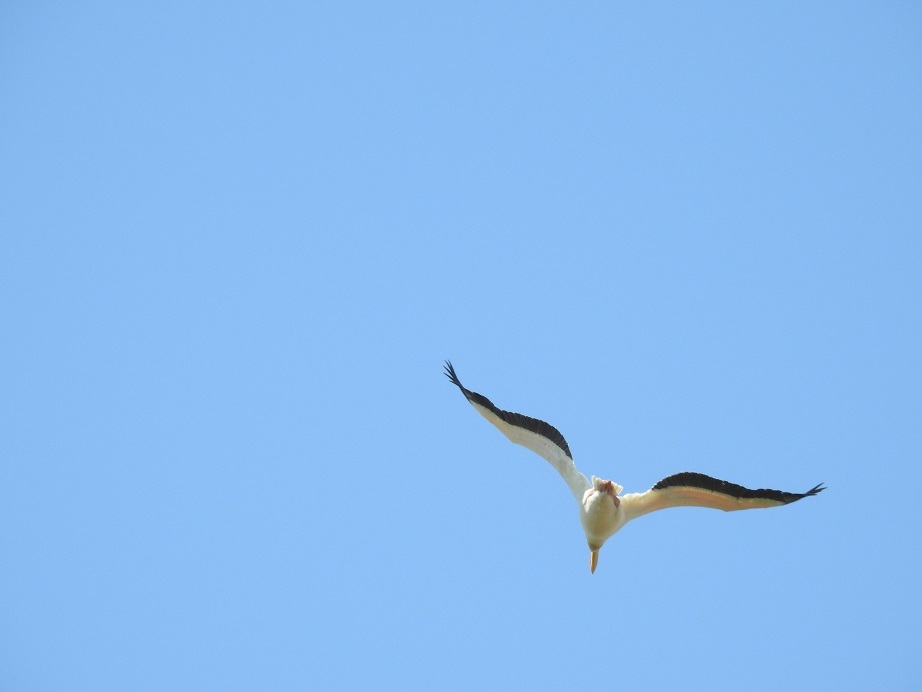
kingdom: Animalia
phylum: Chordata
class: Aves
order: Pelecaniformes
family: Pelecanidae
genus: Pelecanus
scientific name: Pelecanus onocrotalus
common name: Great white pelican
